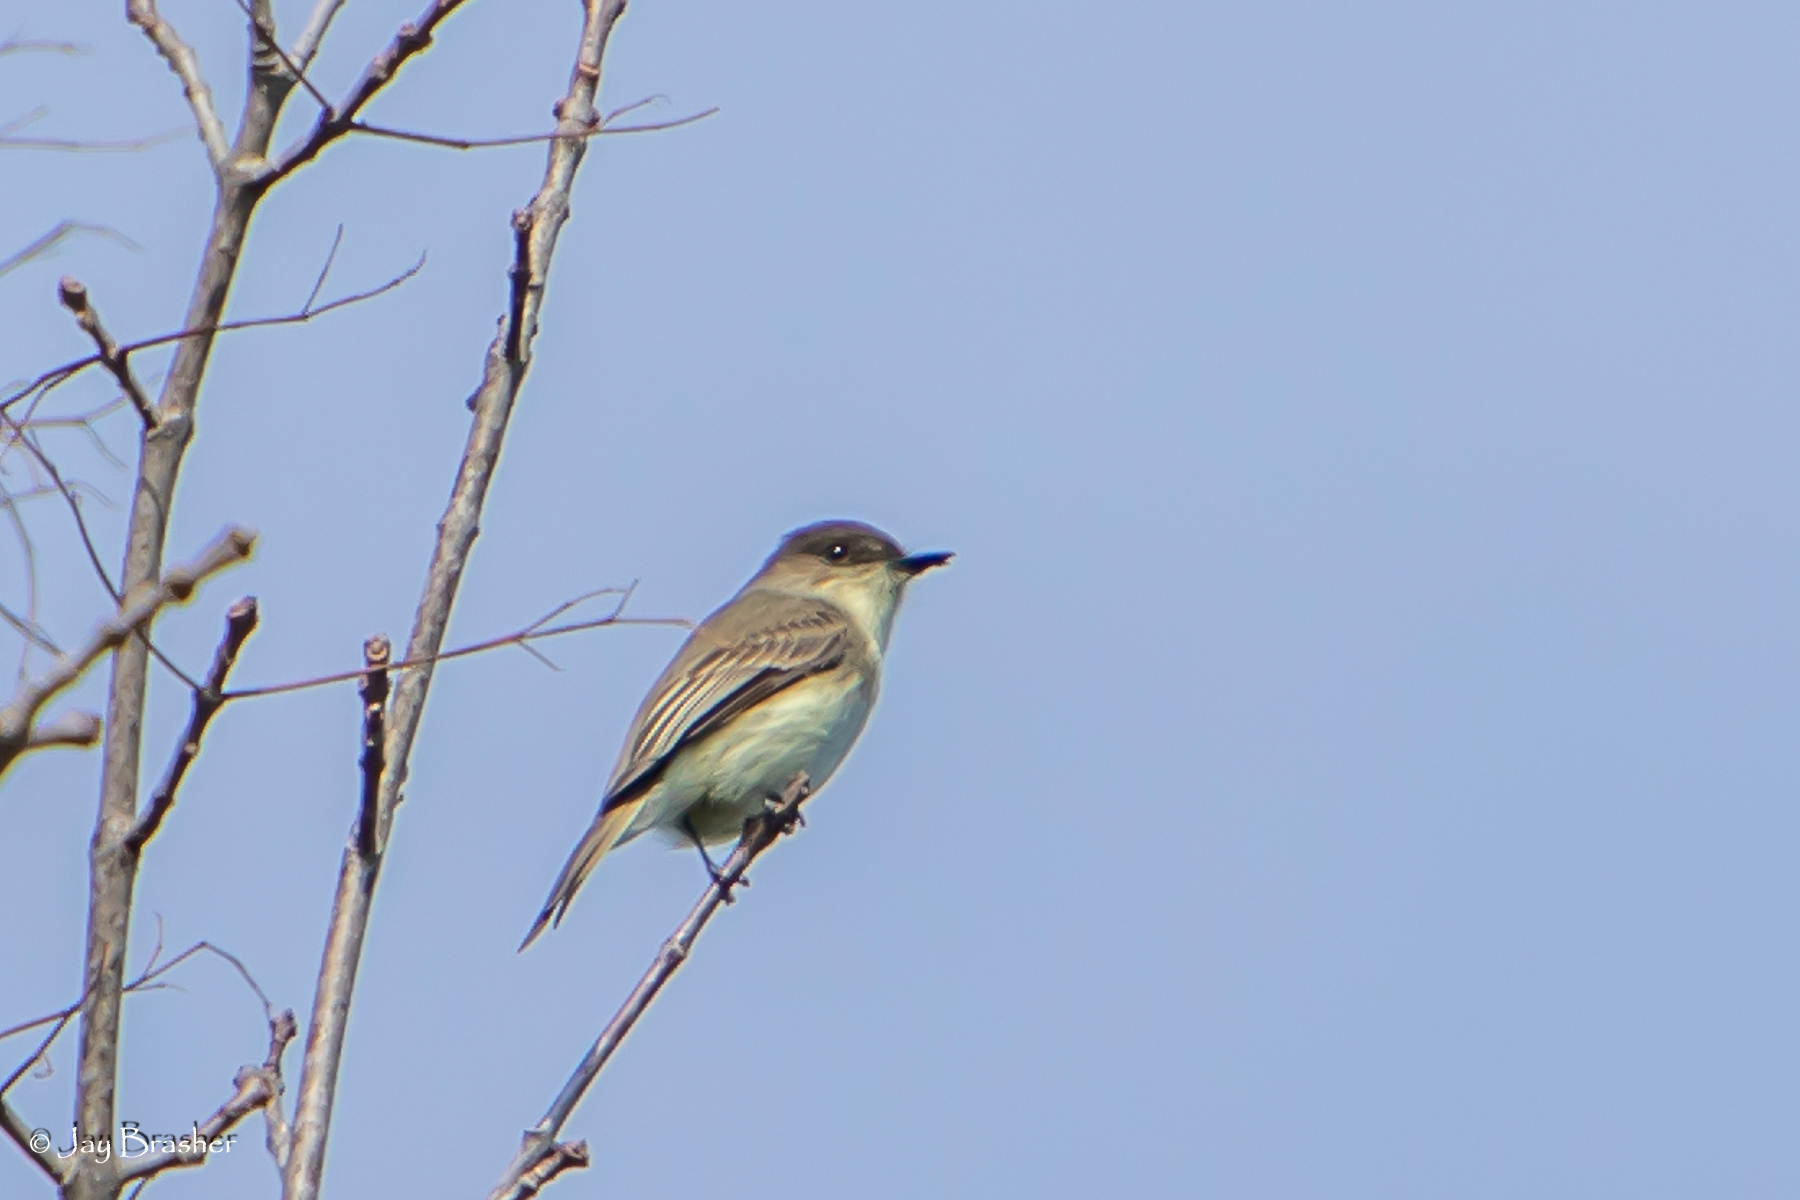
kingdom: Animalia
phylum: Chordata
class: Aves
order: Passeriformes
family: Tyrannidae
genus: Sayornis
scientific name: Sayornis phoebe
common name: Eastern phoebe
